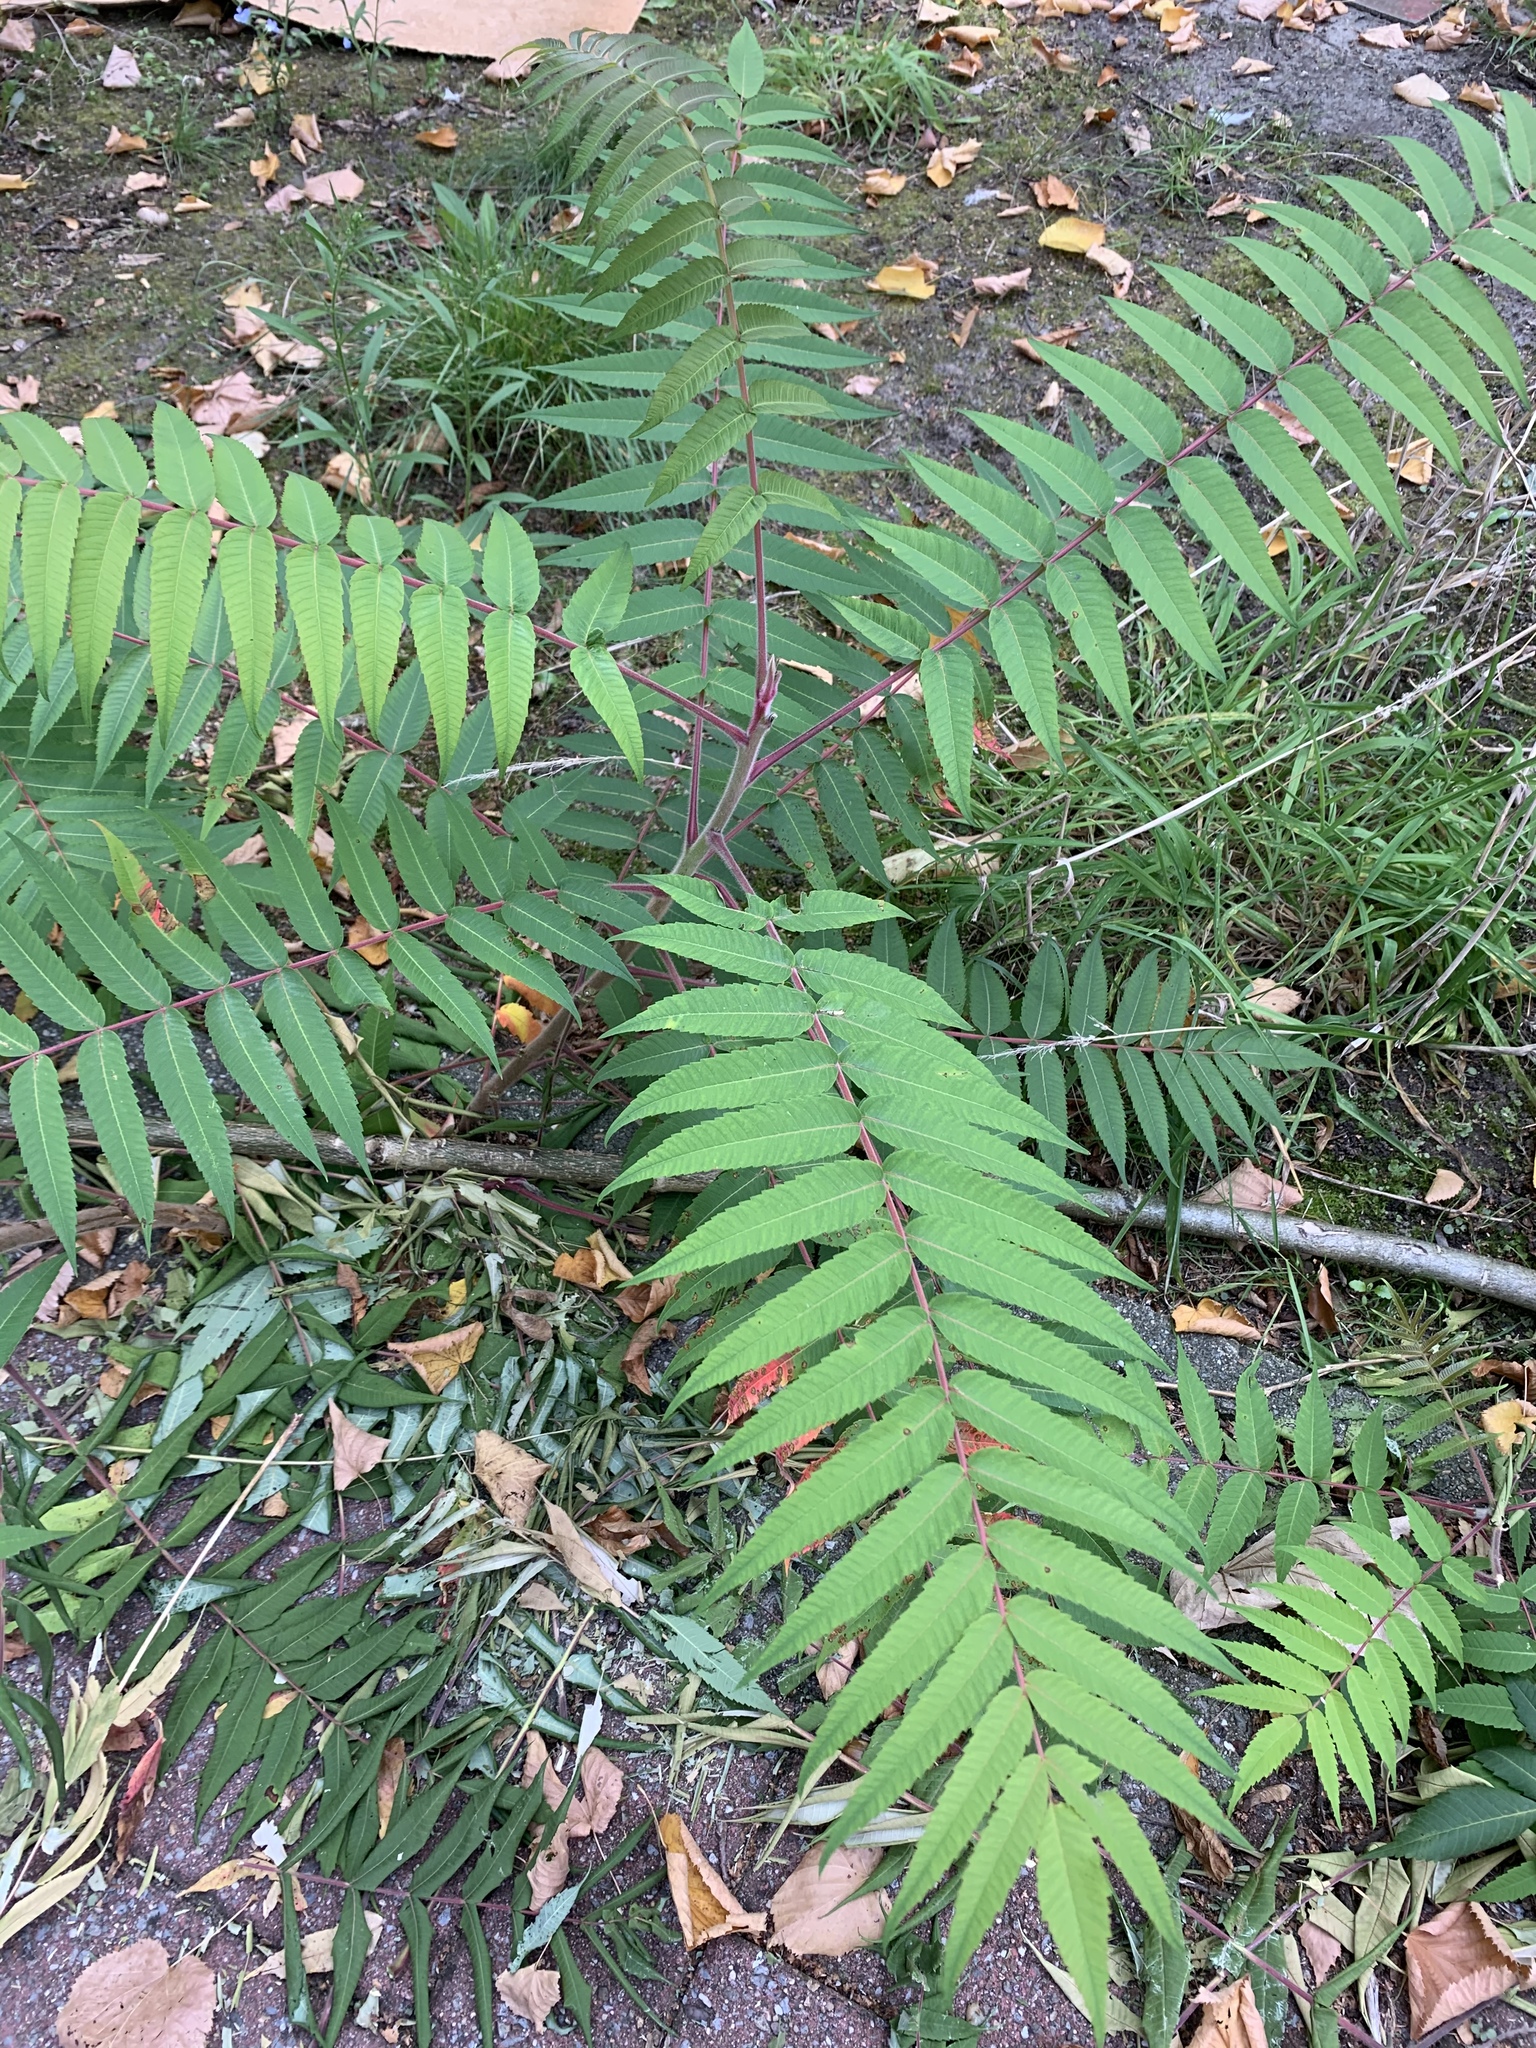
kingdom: Plantae
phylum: Tracheophyta
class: Magnoliopsida
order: Sapindales
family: Anacardiaceae
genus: Rhus
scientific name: Rhus typhina
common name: Staghorn sumac
